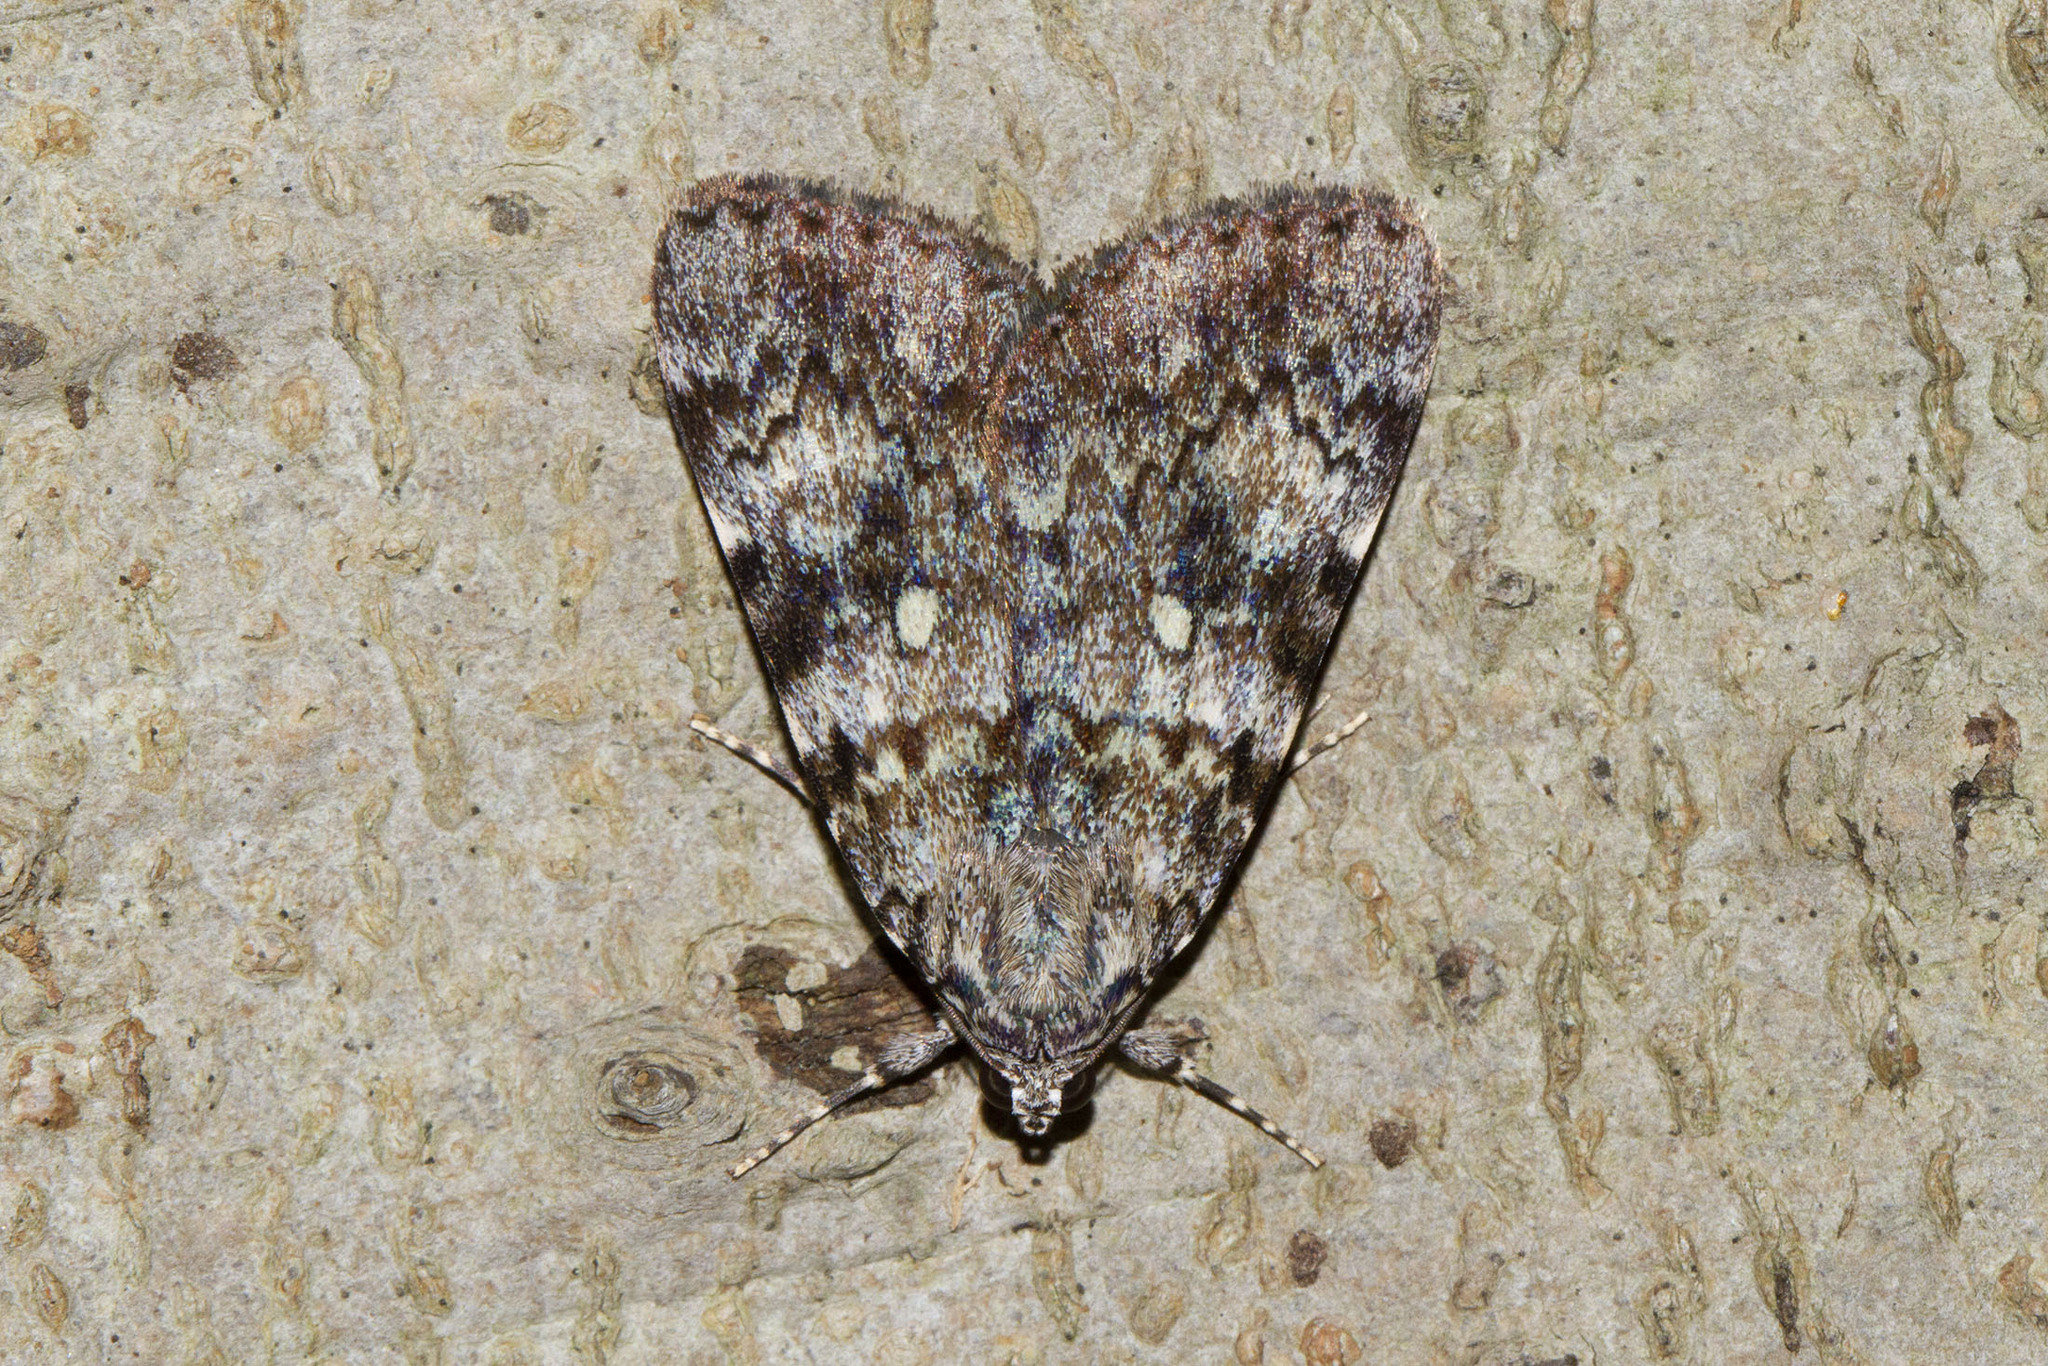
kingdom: Animalia
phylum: Arthropoda
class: Insecta
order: Lepidoptera
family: Erebidae
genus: Catocala
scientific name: Catocala lineella
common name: Little lined underwing
